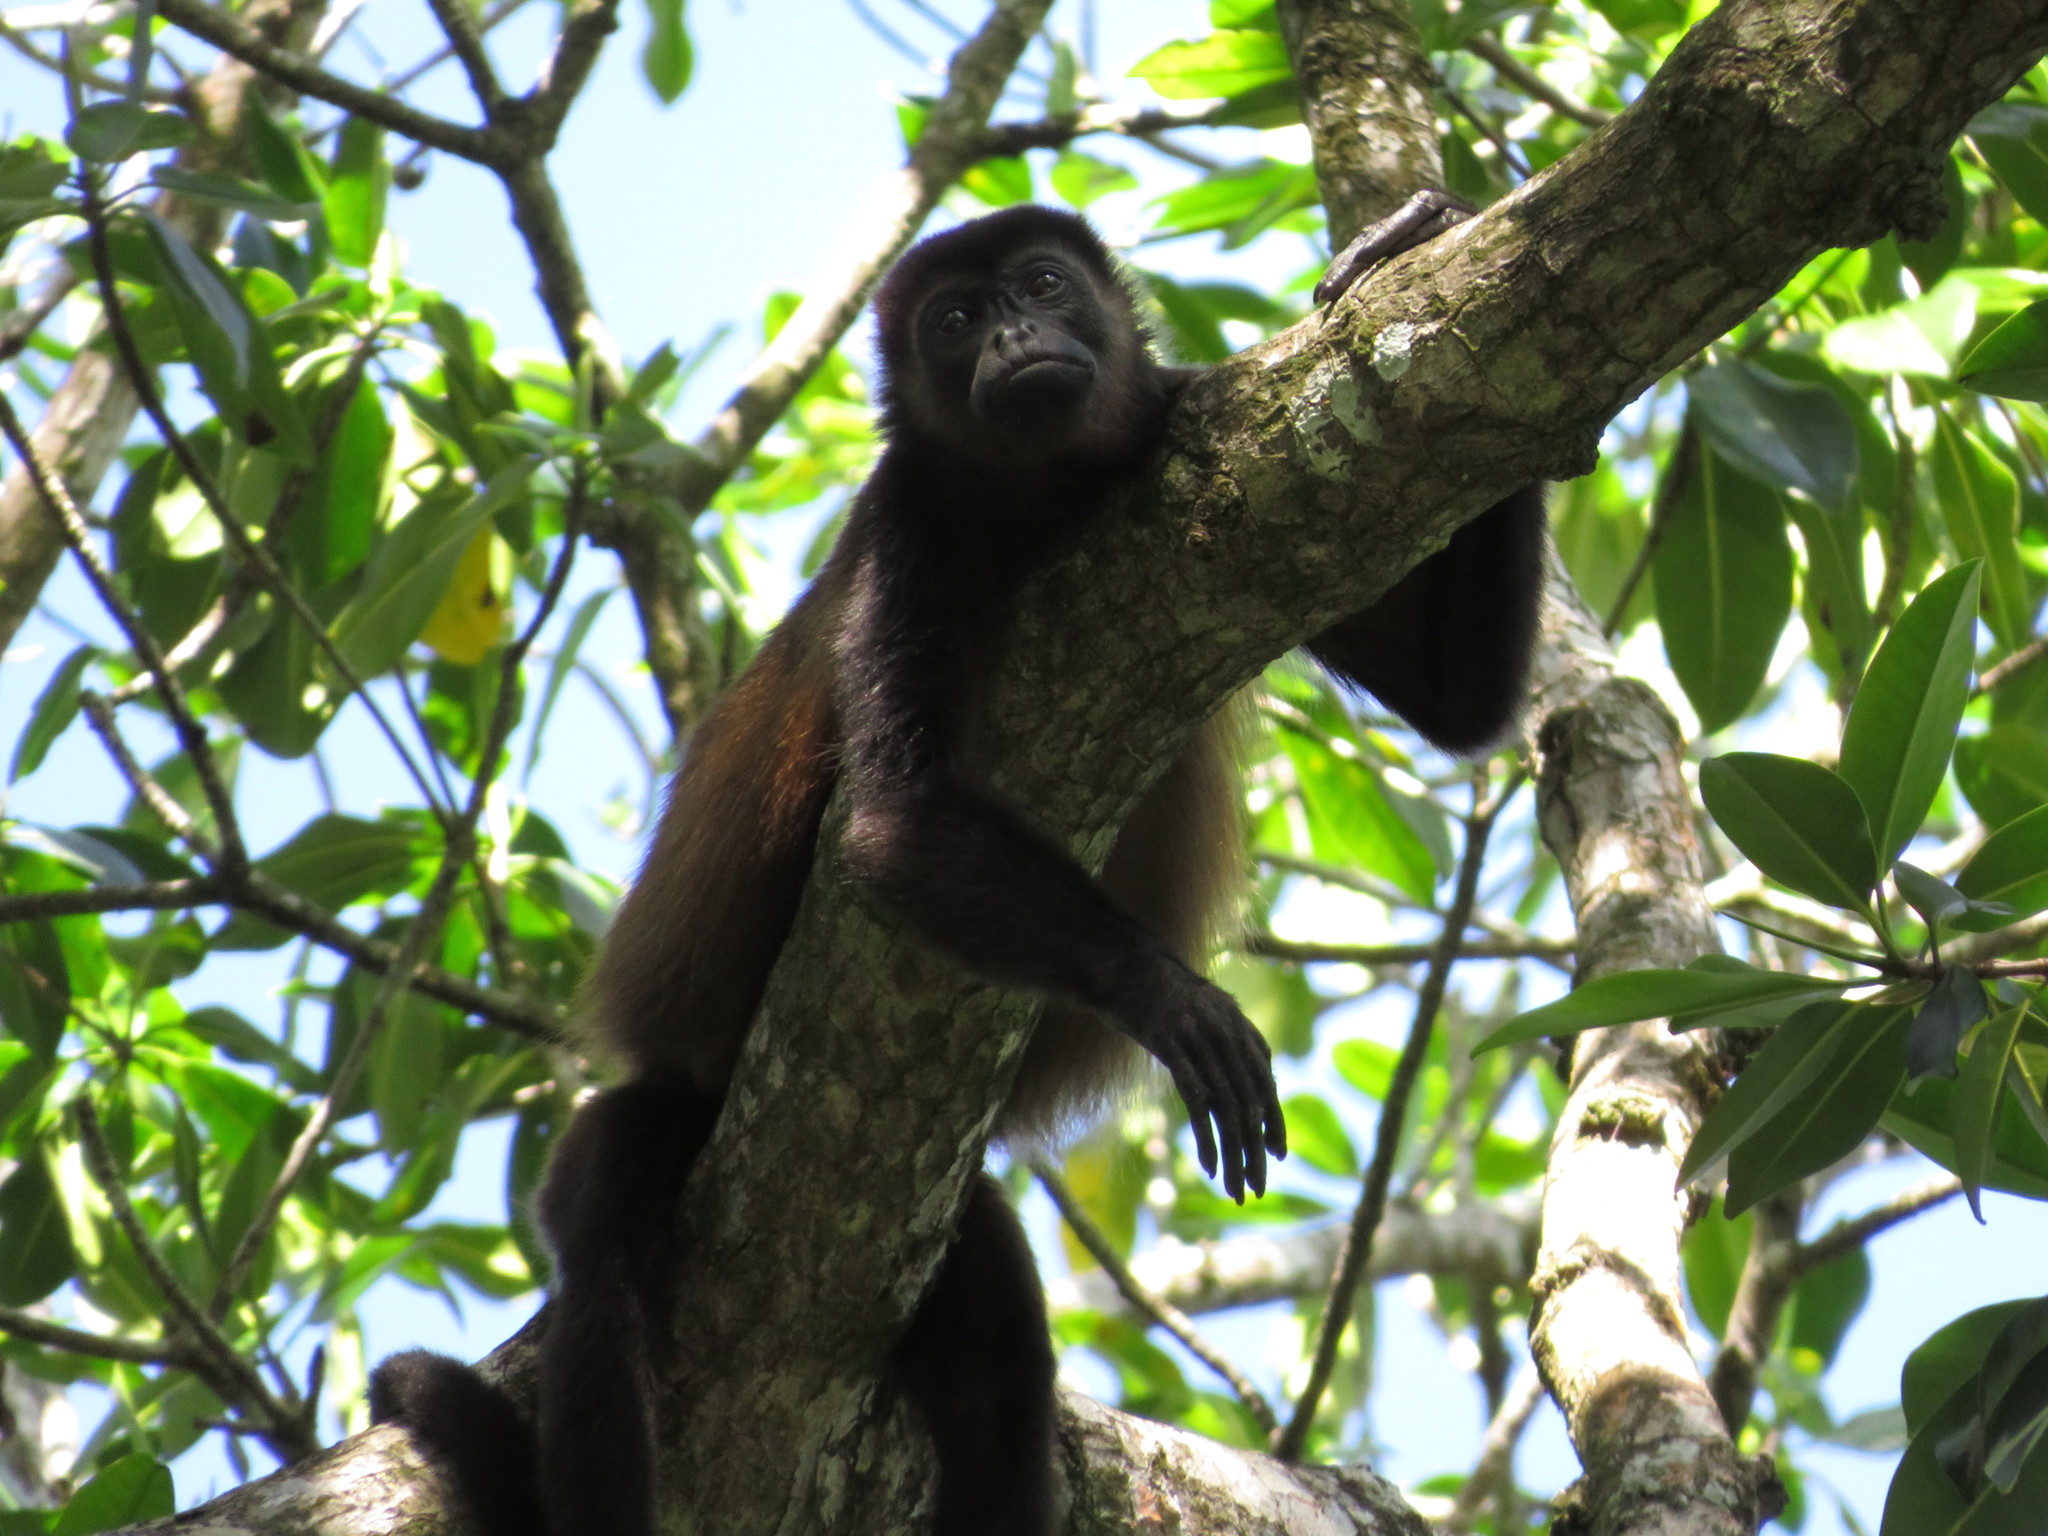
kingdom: Animalia
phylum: Chordata
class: Mammalia
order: Primates
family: Atelidae
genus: Alouatta
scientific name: Alouatta palliata
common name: Mantled howler
